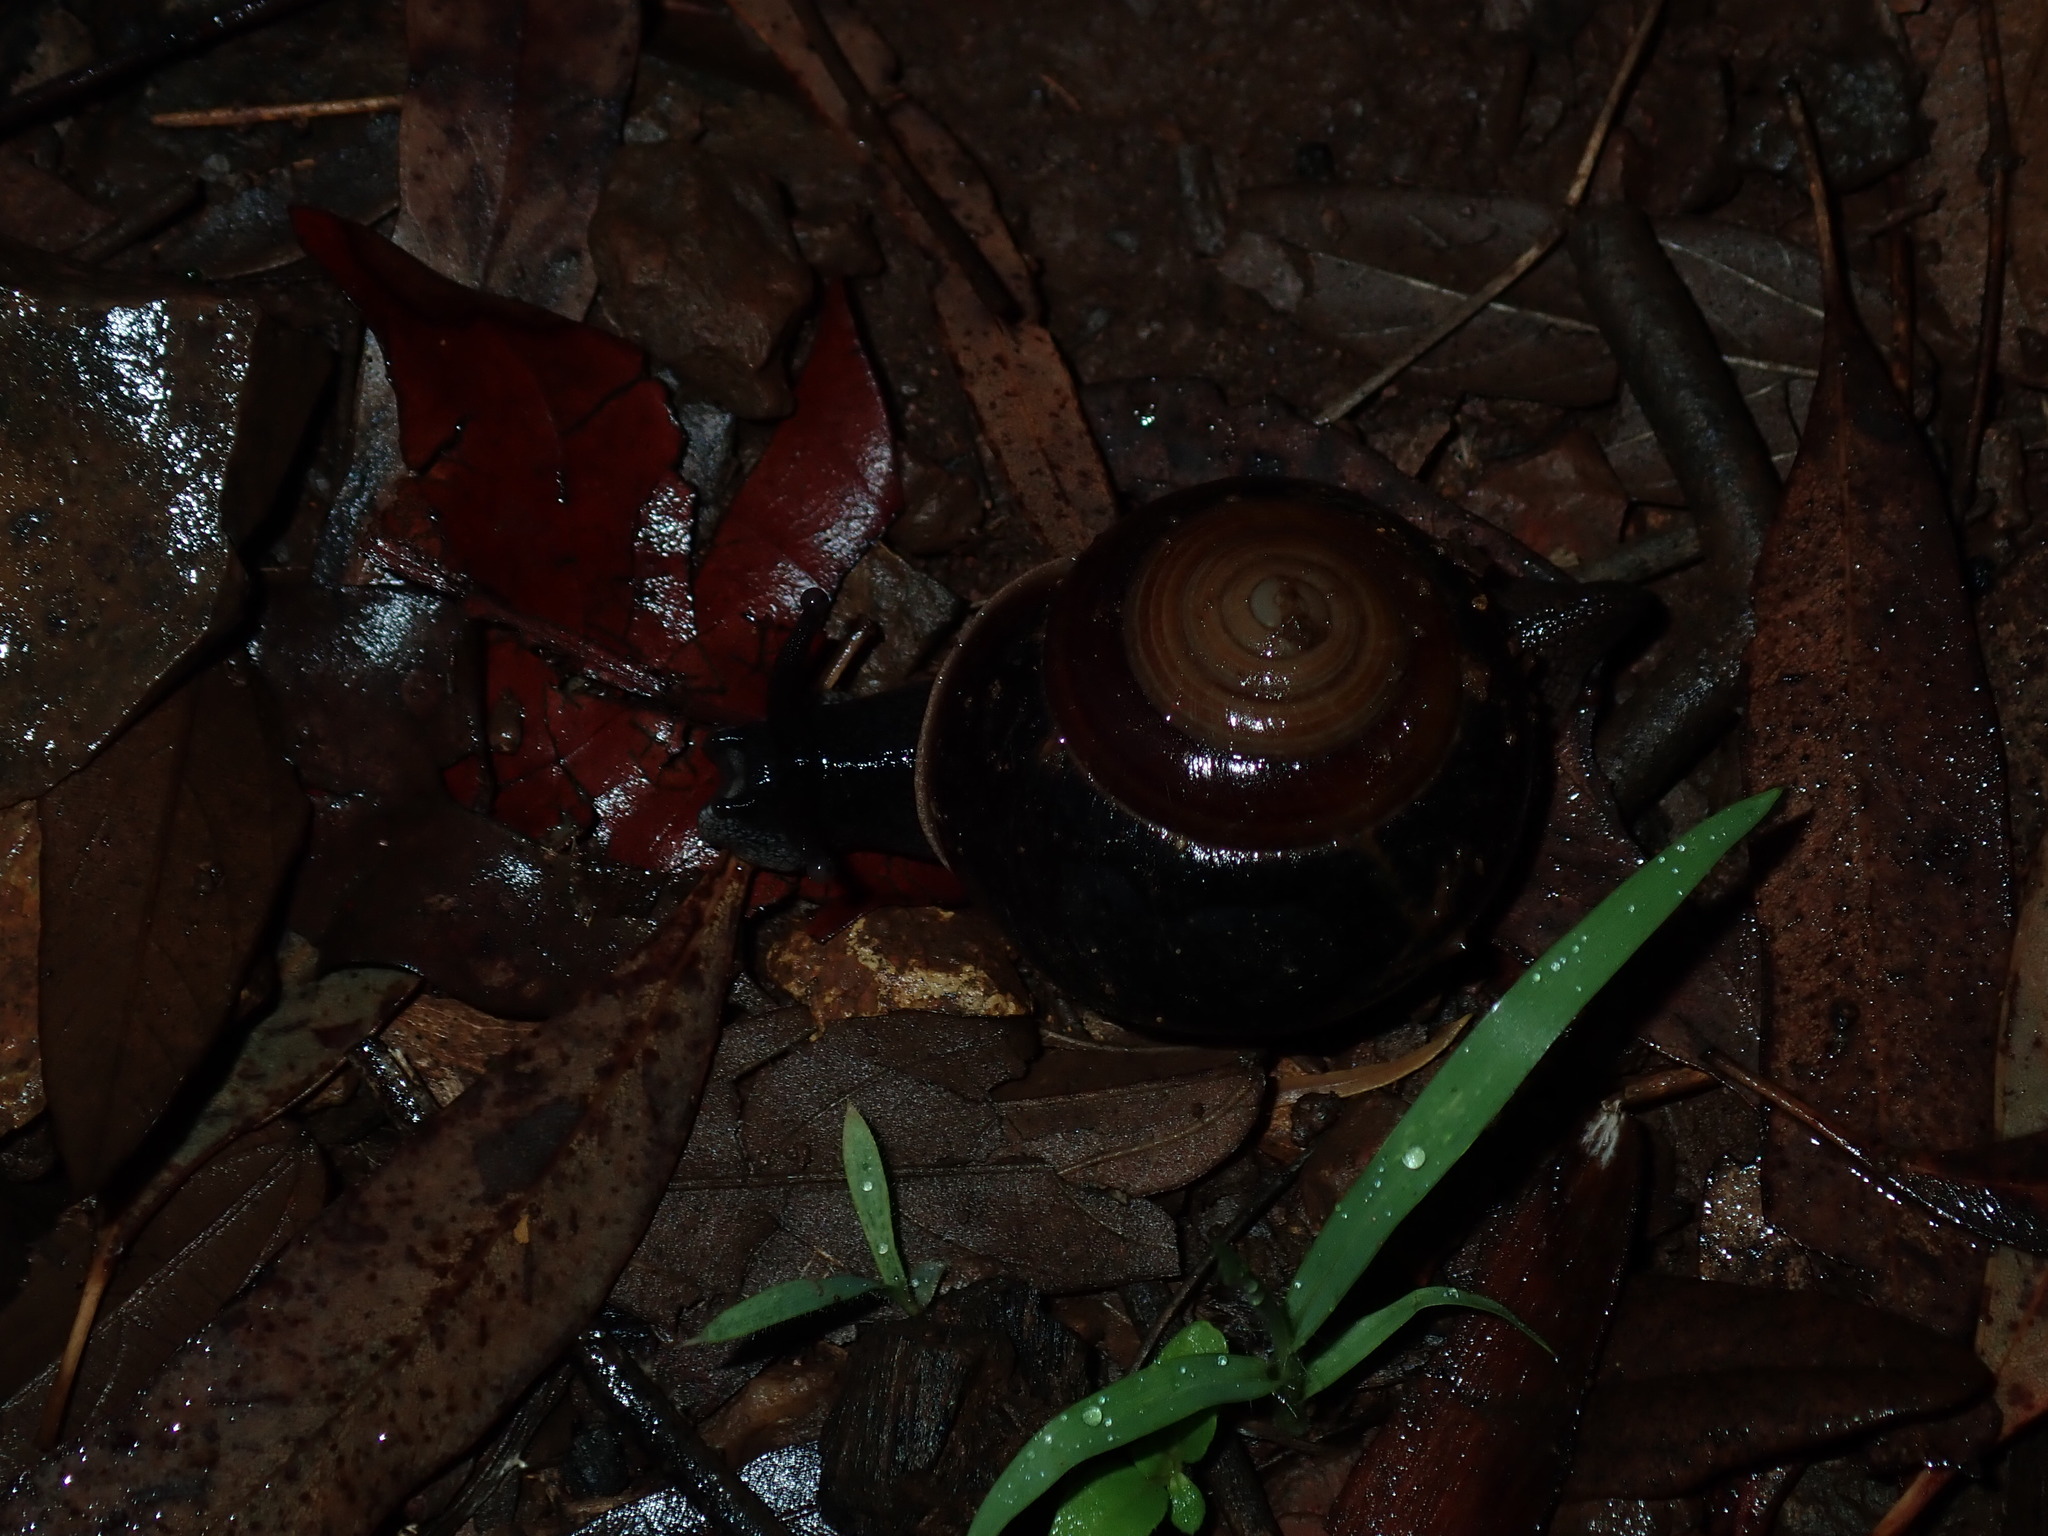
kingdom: Animalia
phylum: Mollusca
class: Gastropoda
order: Stylommatophora
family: Camaenidae
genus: Figuladra
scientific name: Figuladra incei
